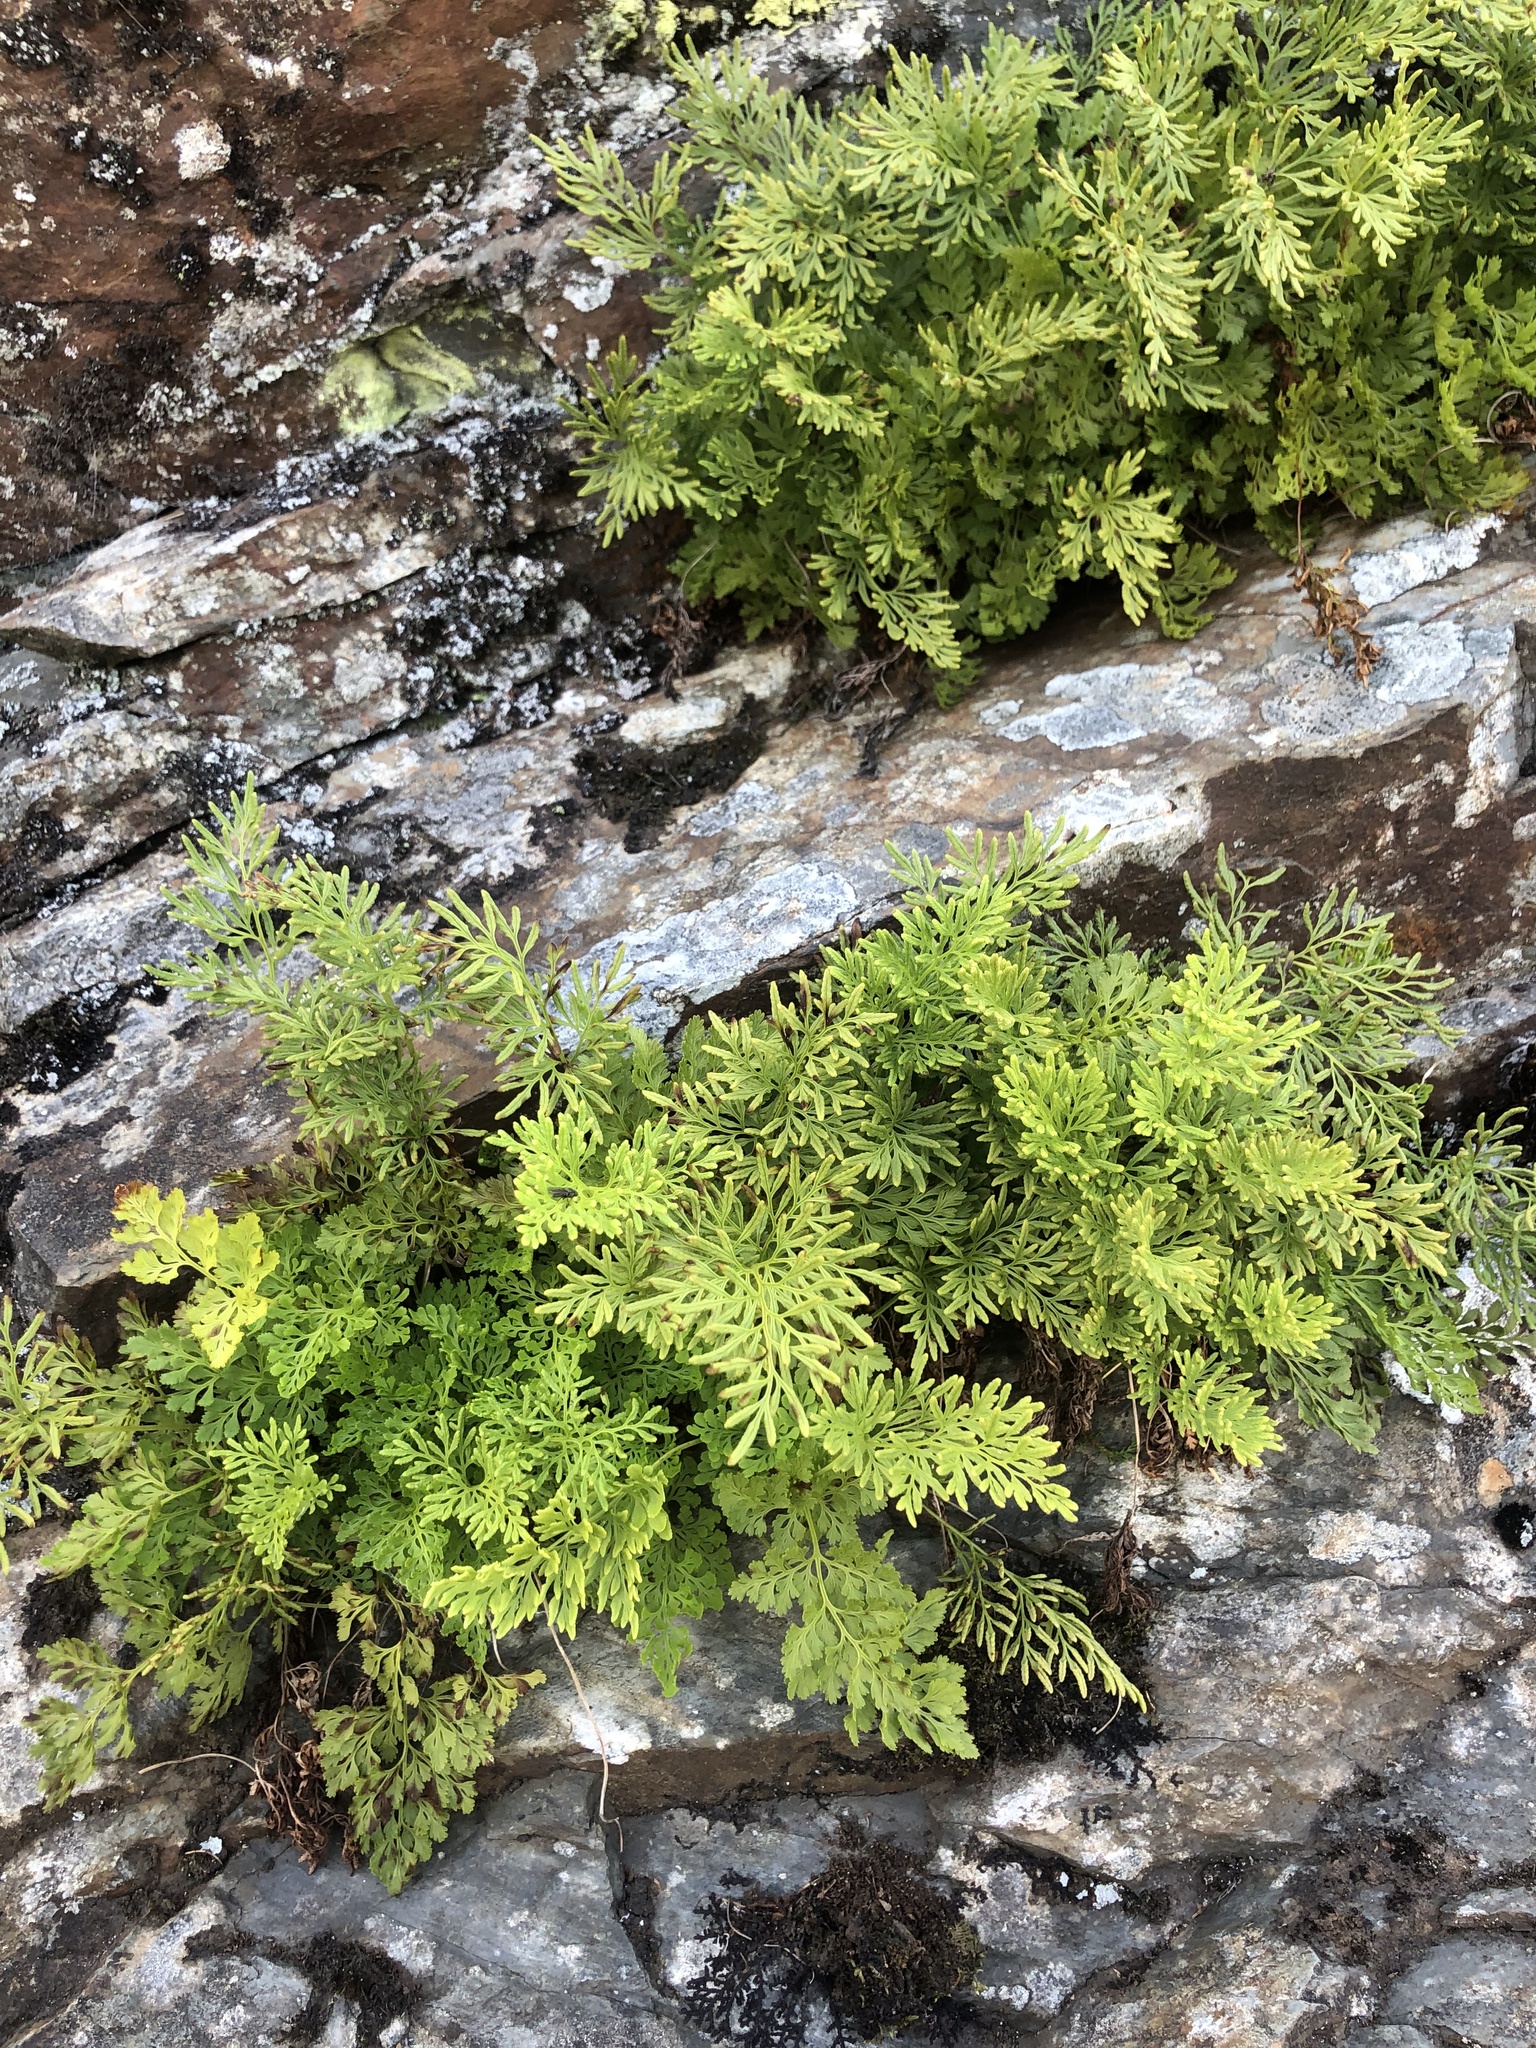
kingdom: Plantae
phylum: Tracheophyta
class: Polypodiopsida
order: Polypodiales
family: Pteridaceae
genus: Cryptogramma
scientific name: Cryptogramma crispa
